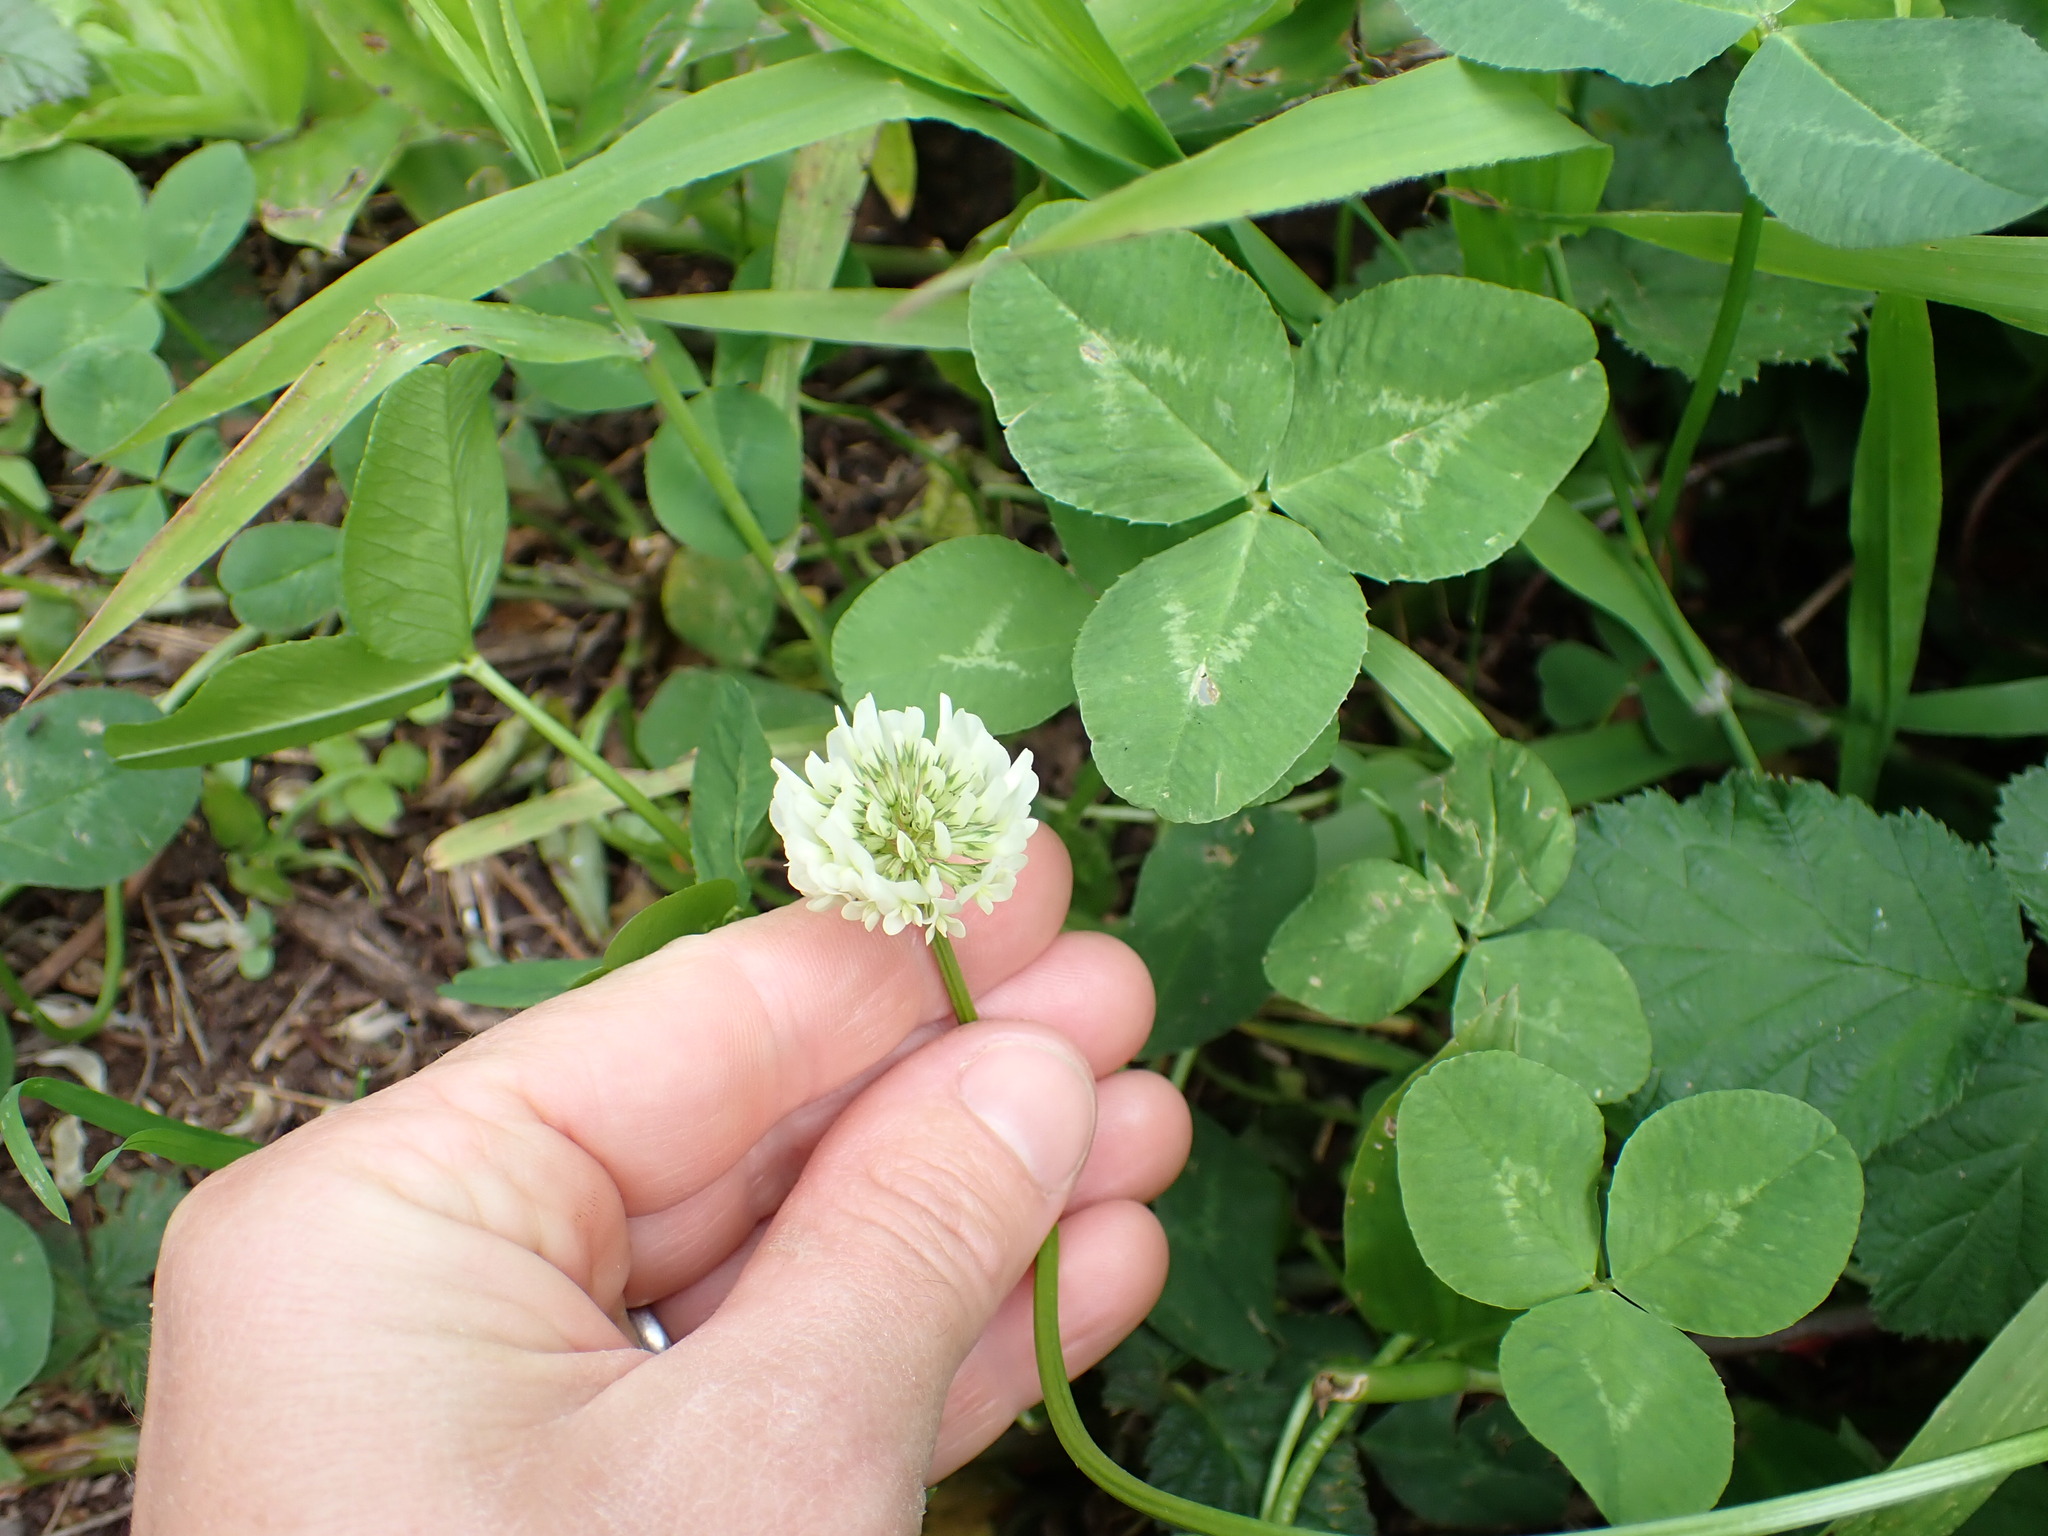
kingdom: Plantae
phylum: Tracheophyta
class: Magnoliopsida
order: Fabales
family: Fabaceae
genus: Trifolium
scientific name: Trifolium repens
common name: White clover
